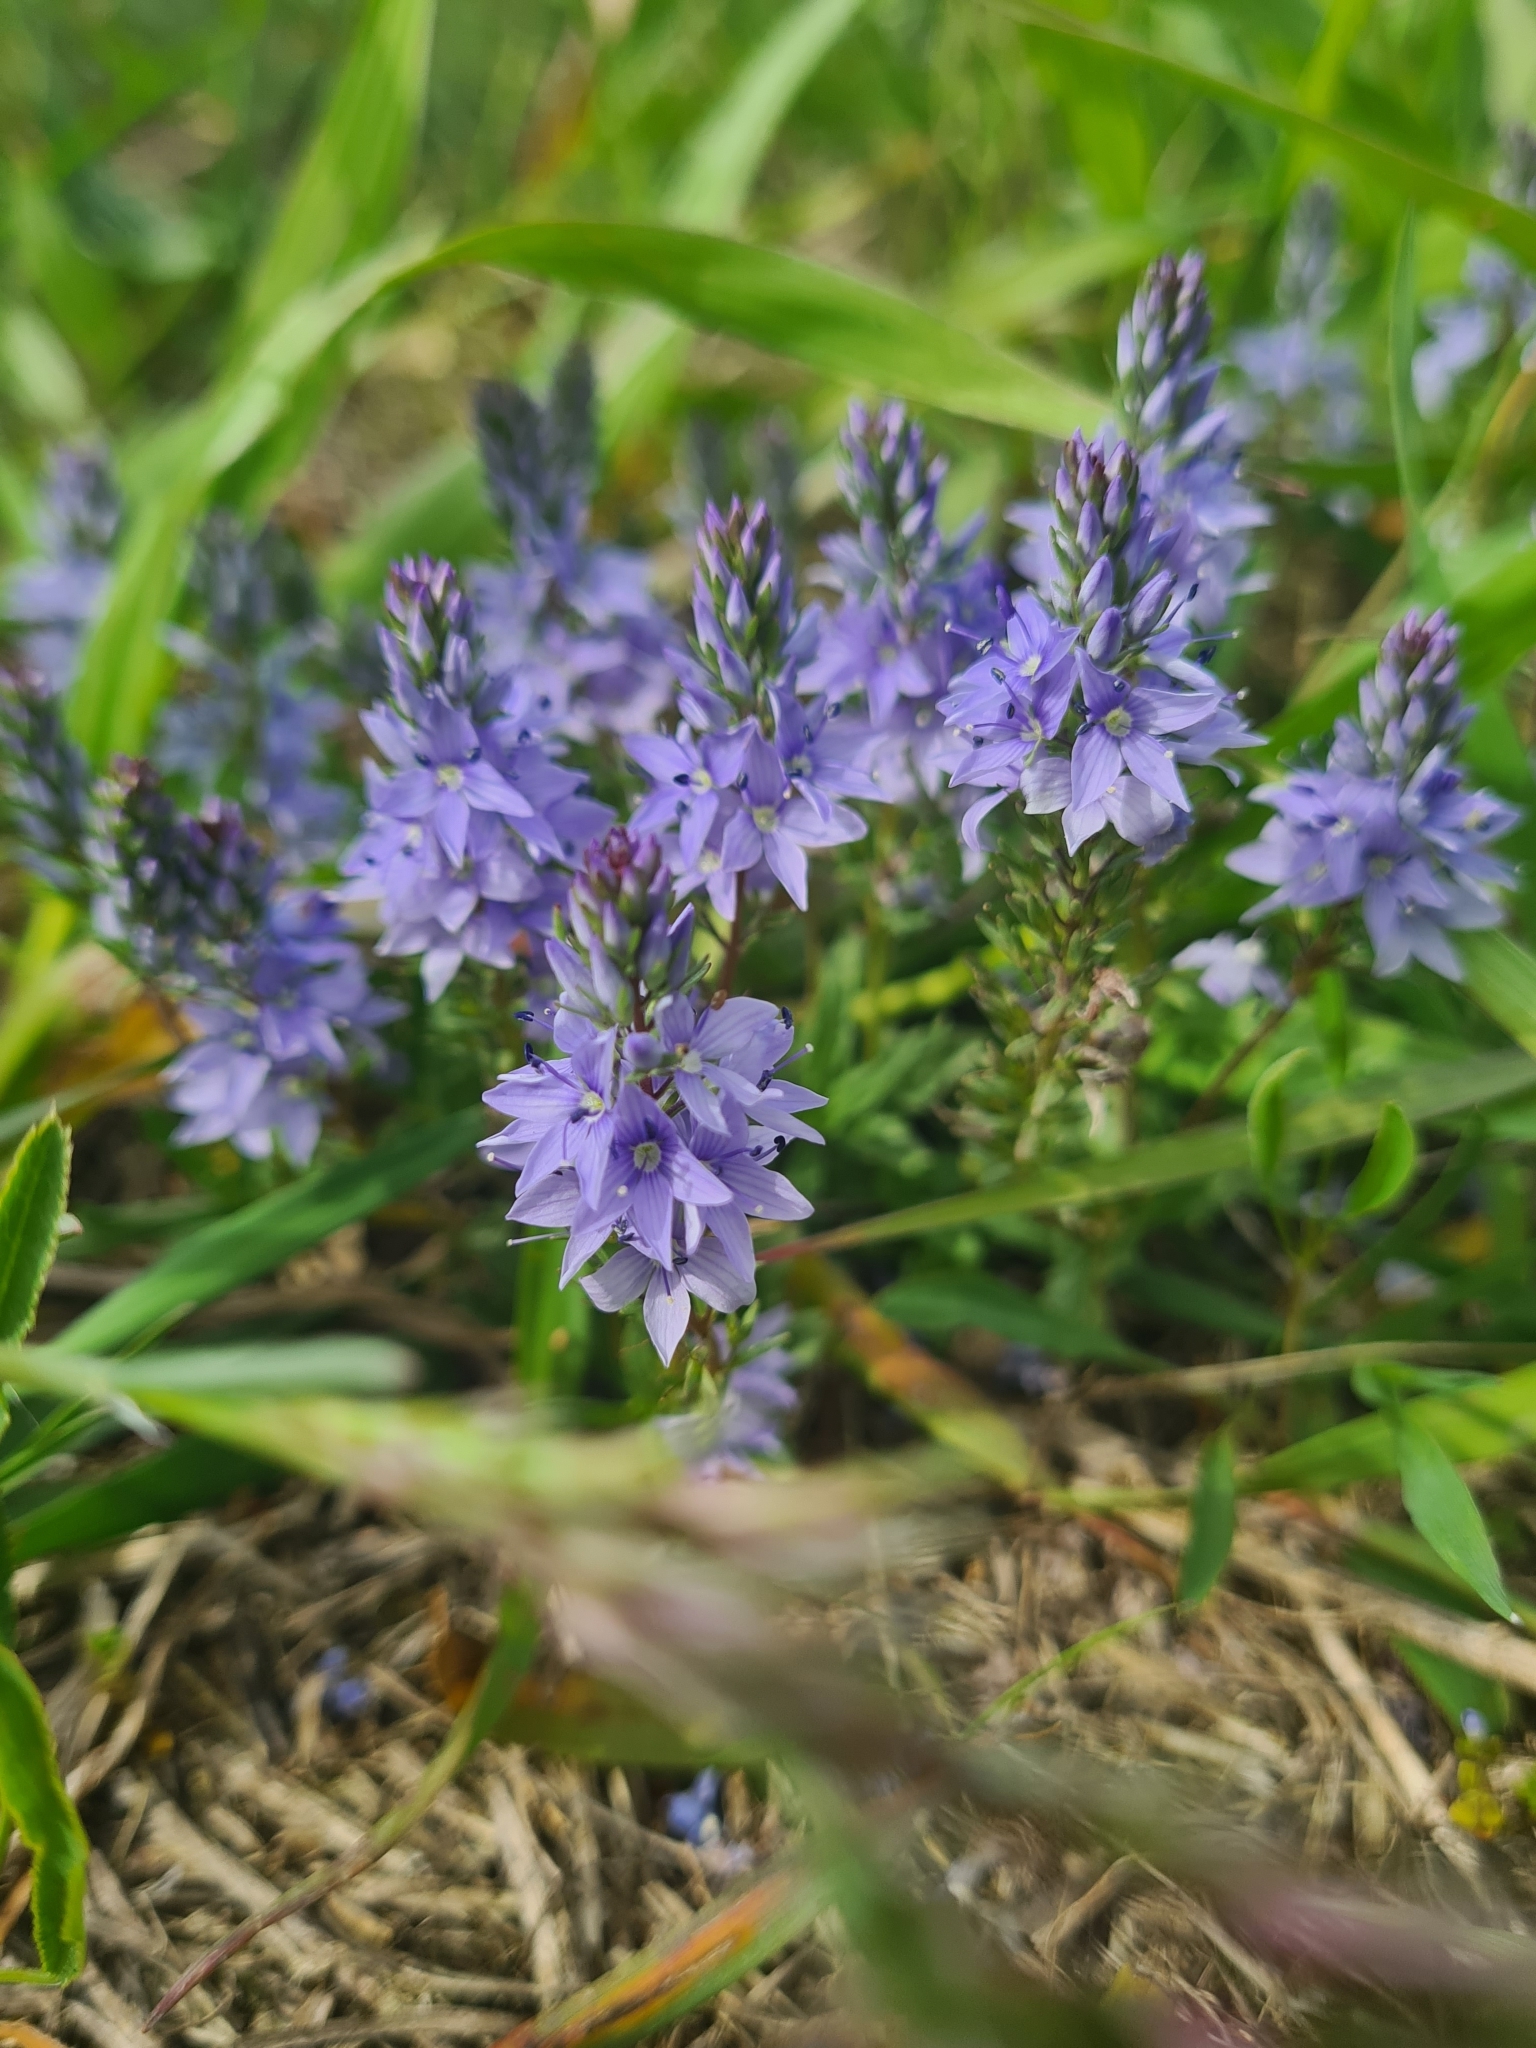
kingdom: Plantae
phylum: Tracheophyta
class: Magnoliopsida
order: Lamiales
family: Plantaginaceae
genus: Veronica
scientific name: Veronica prostrata
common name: Prostrate speedwell
